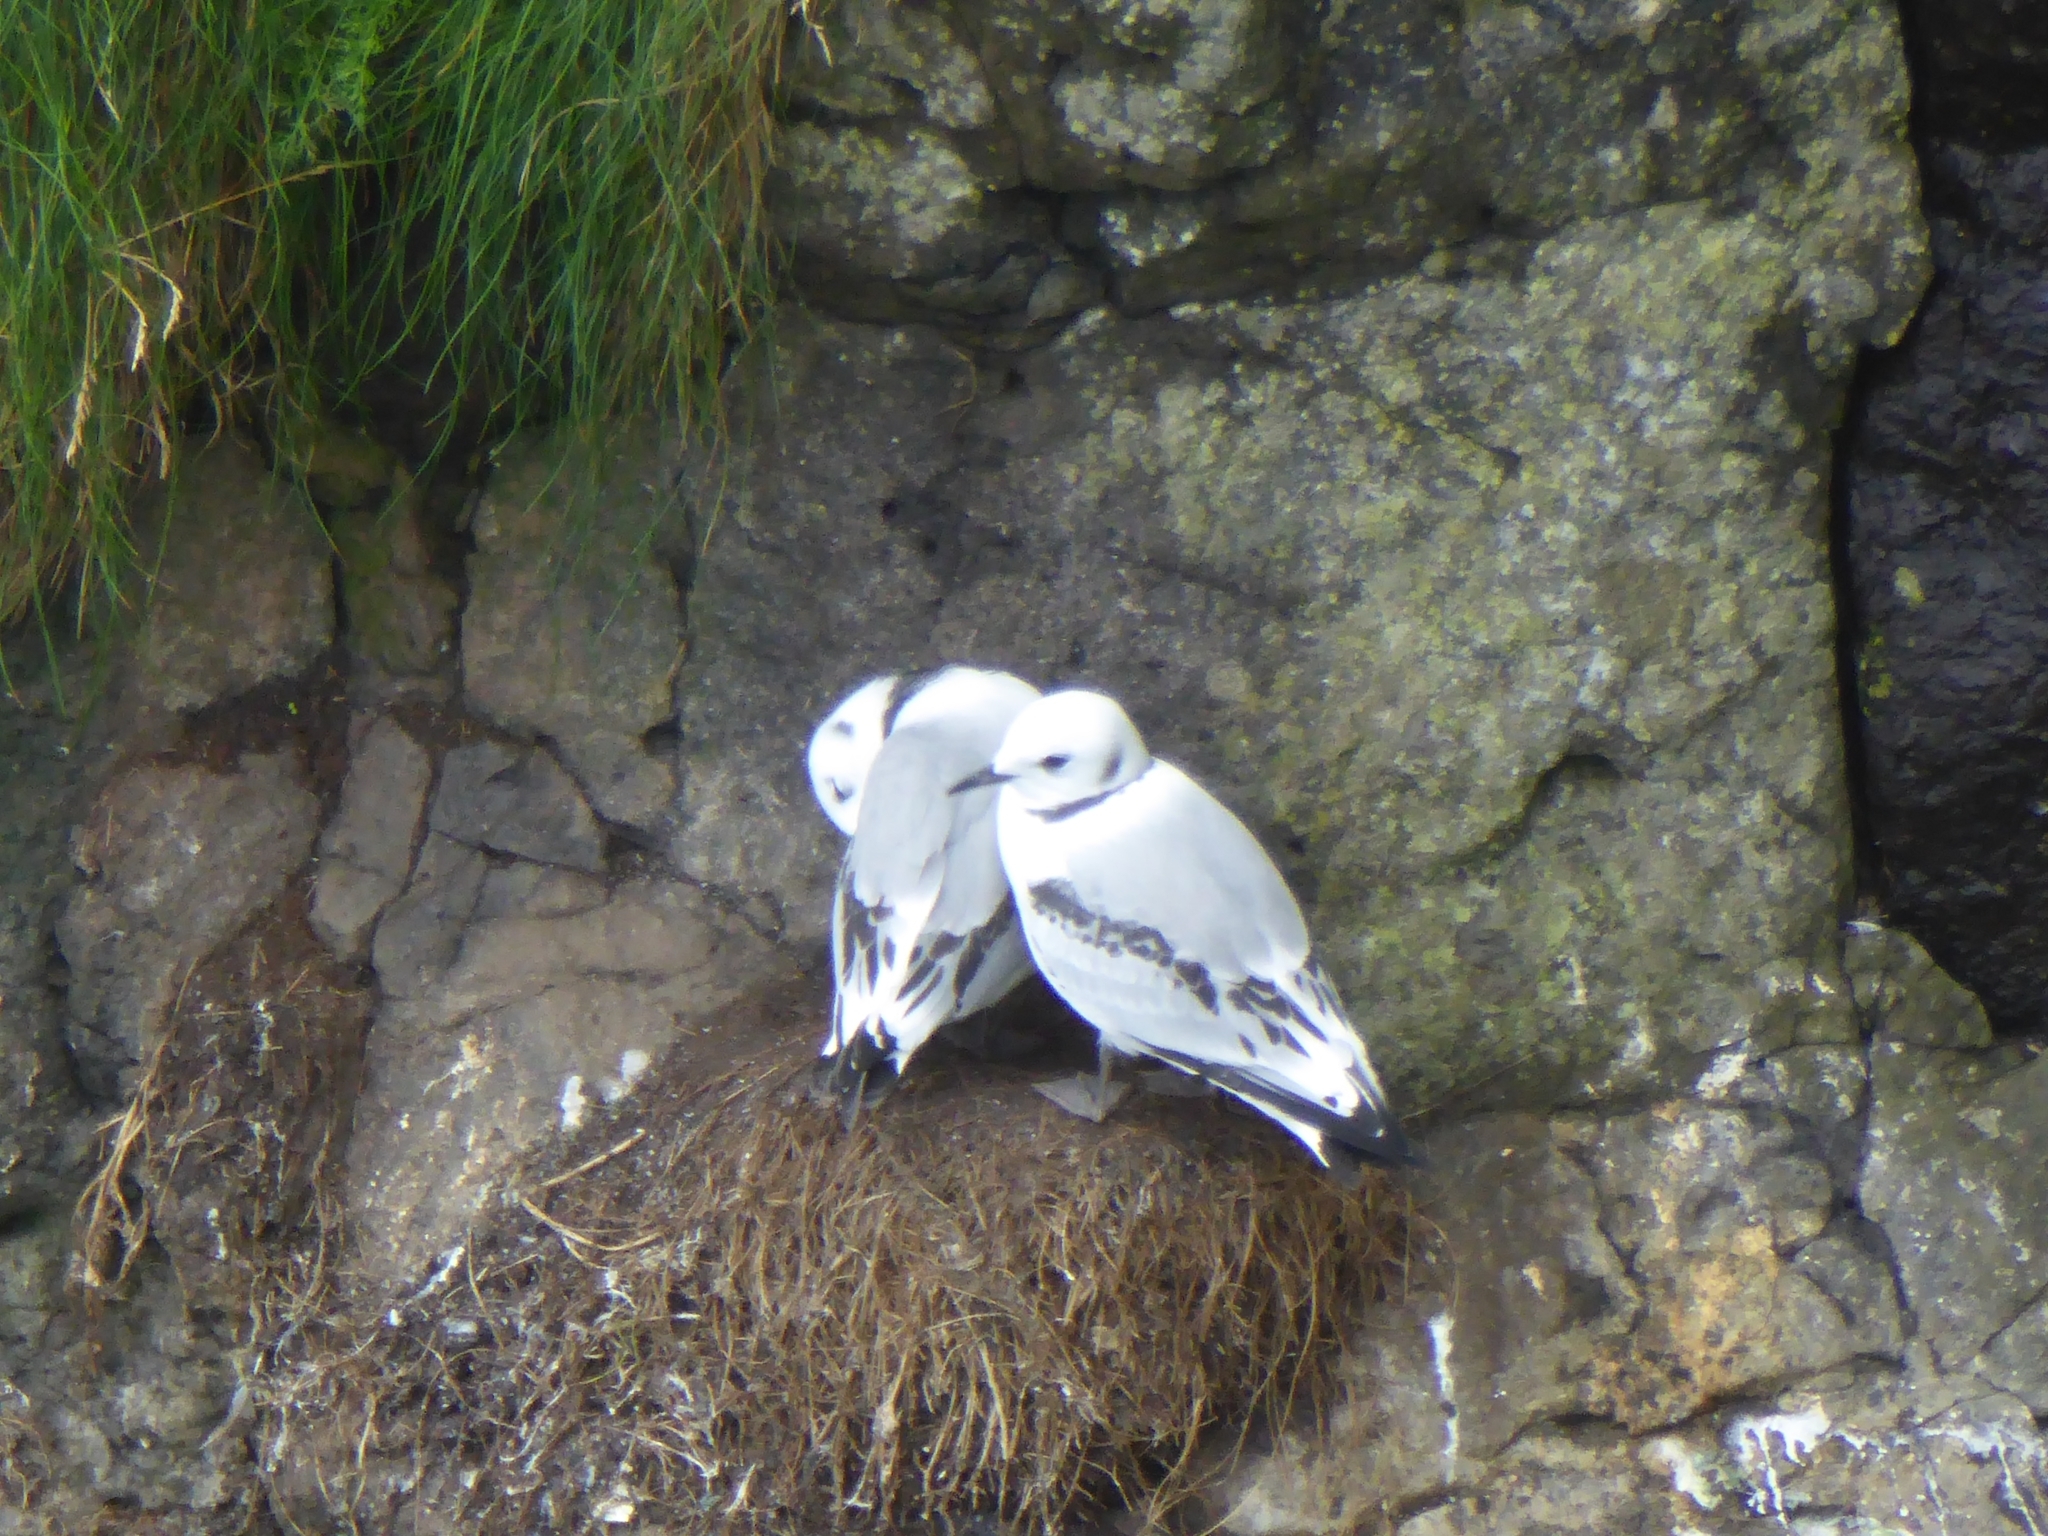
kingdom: Animalia
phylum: Chordata
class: Aves
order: Charadriiformes
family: Laridae
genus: Rissa
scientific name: Rissa tridactyla
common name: Black-legged kittiwake
